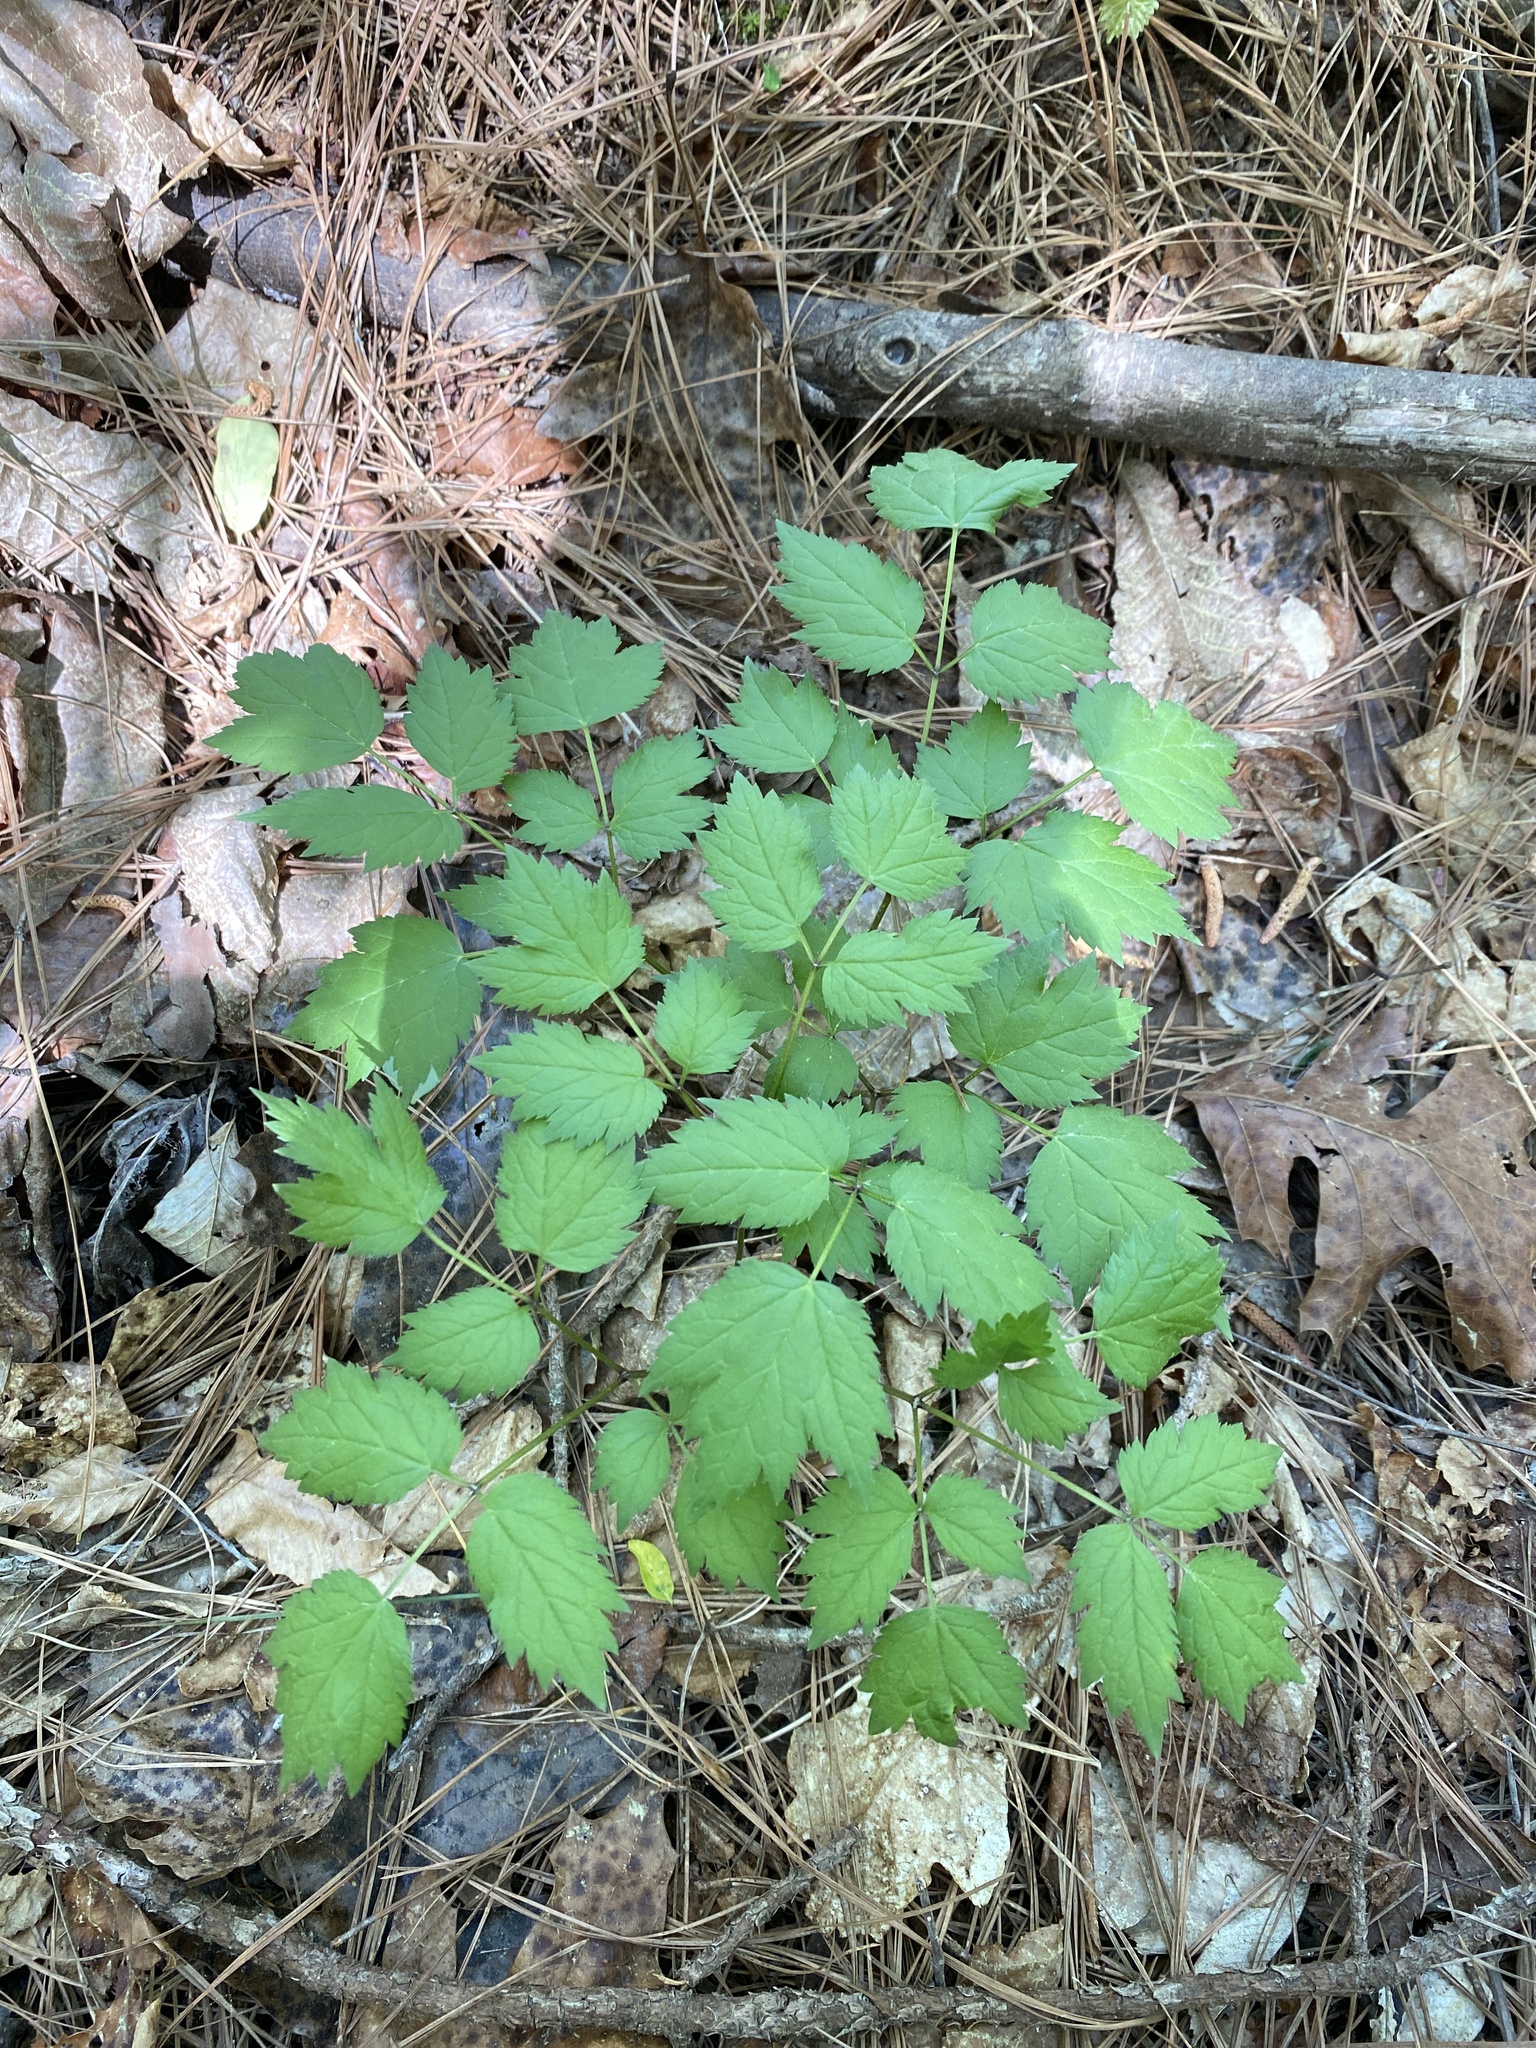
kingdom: Plantae
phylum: Tracheophyta
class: Magnoliopsida
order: Ranunculales
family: Ranunculaceae
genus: Actaea
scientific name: Actaea racemosa
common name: Black cohosh
